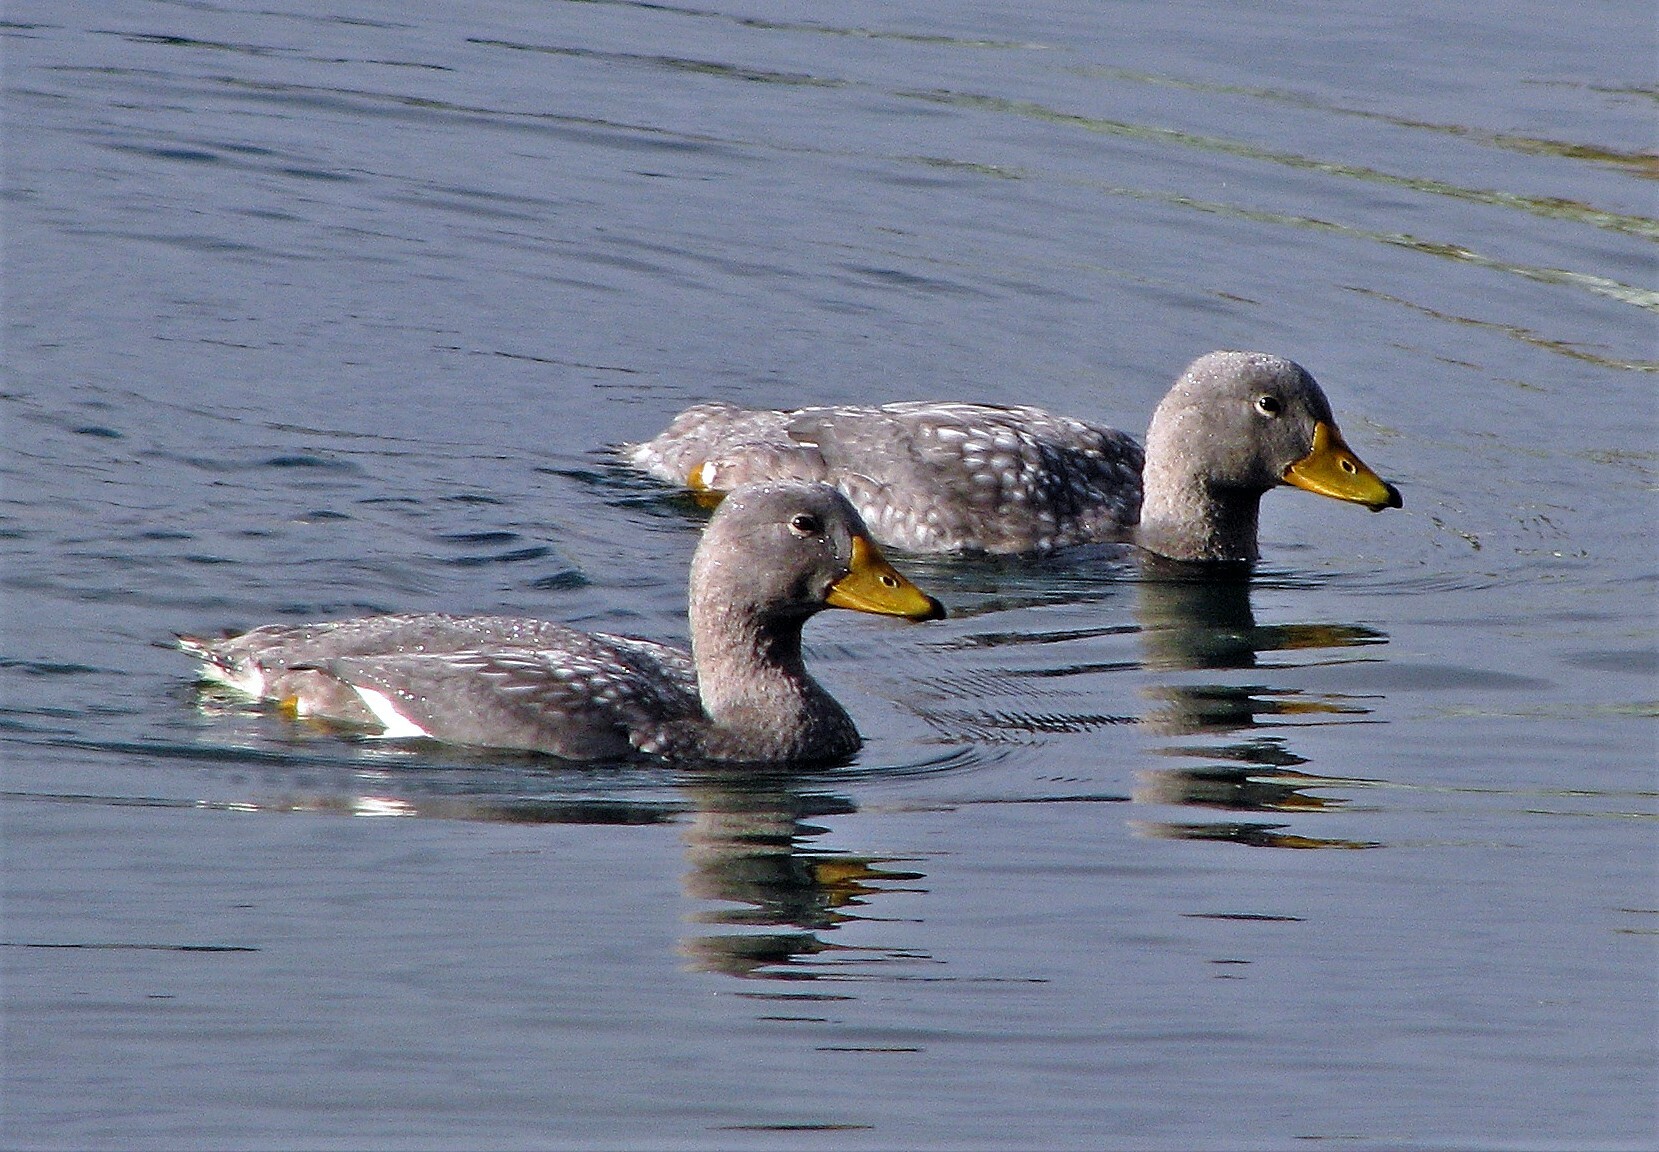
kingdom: Animalia
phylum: Chordata
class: Aves
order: Anseriformes
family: Anatidae
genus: Tachyeres
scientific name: Tachyeres pteneres
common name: Fuegian steamer duck
